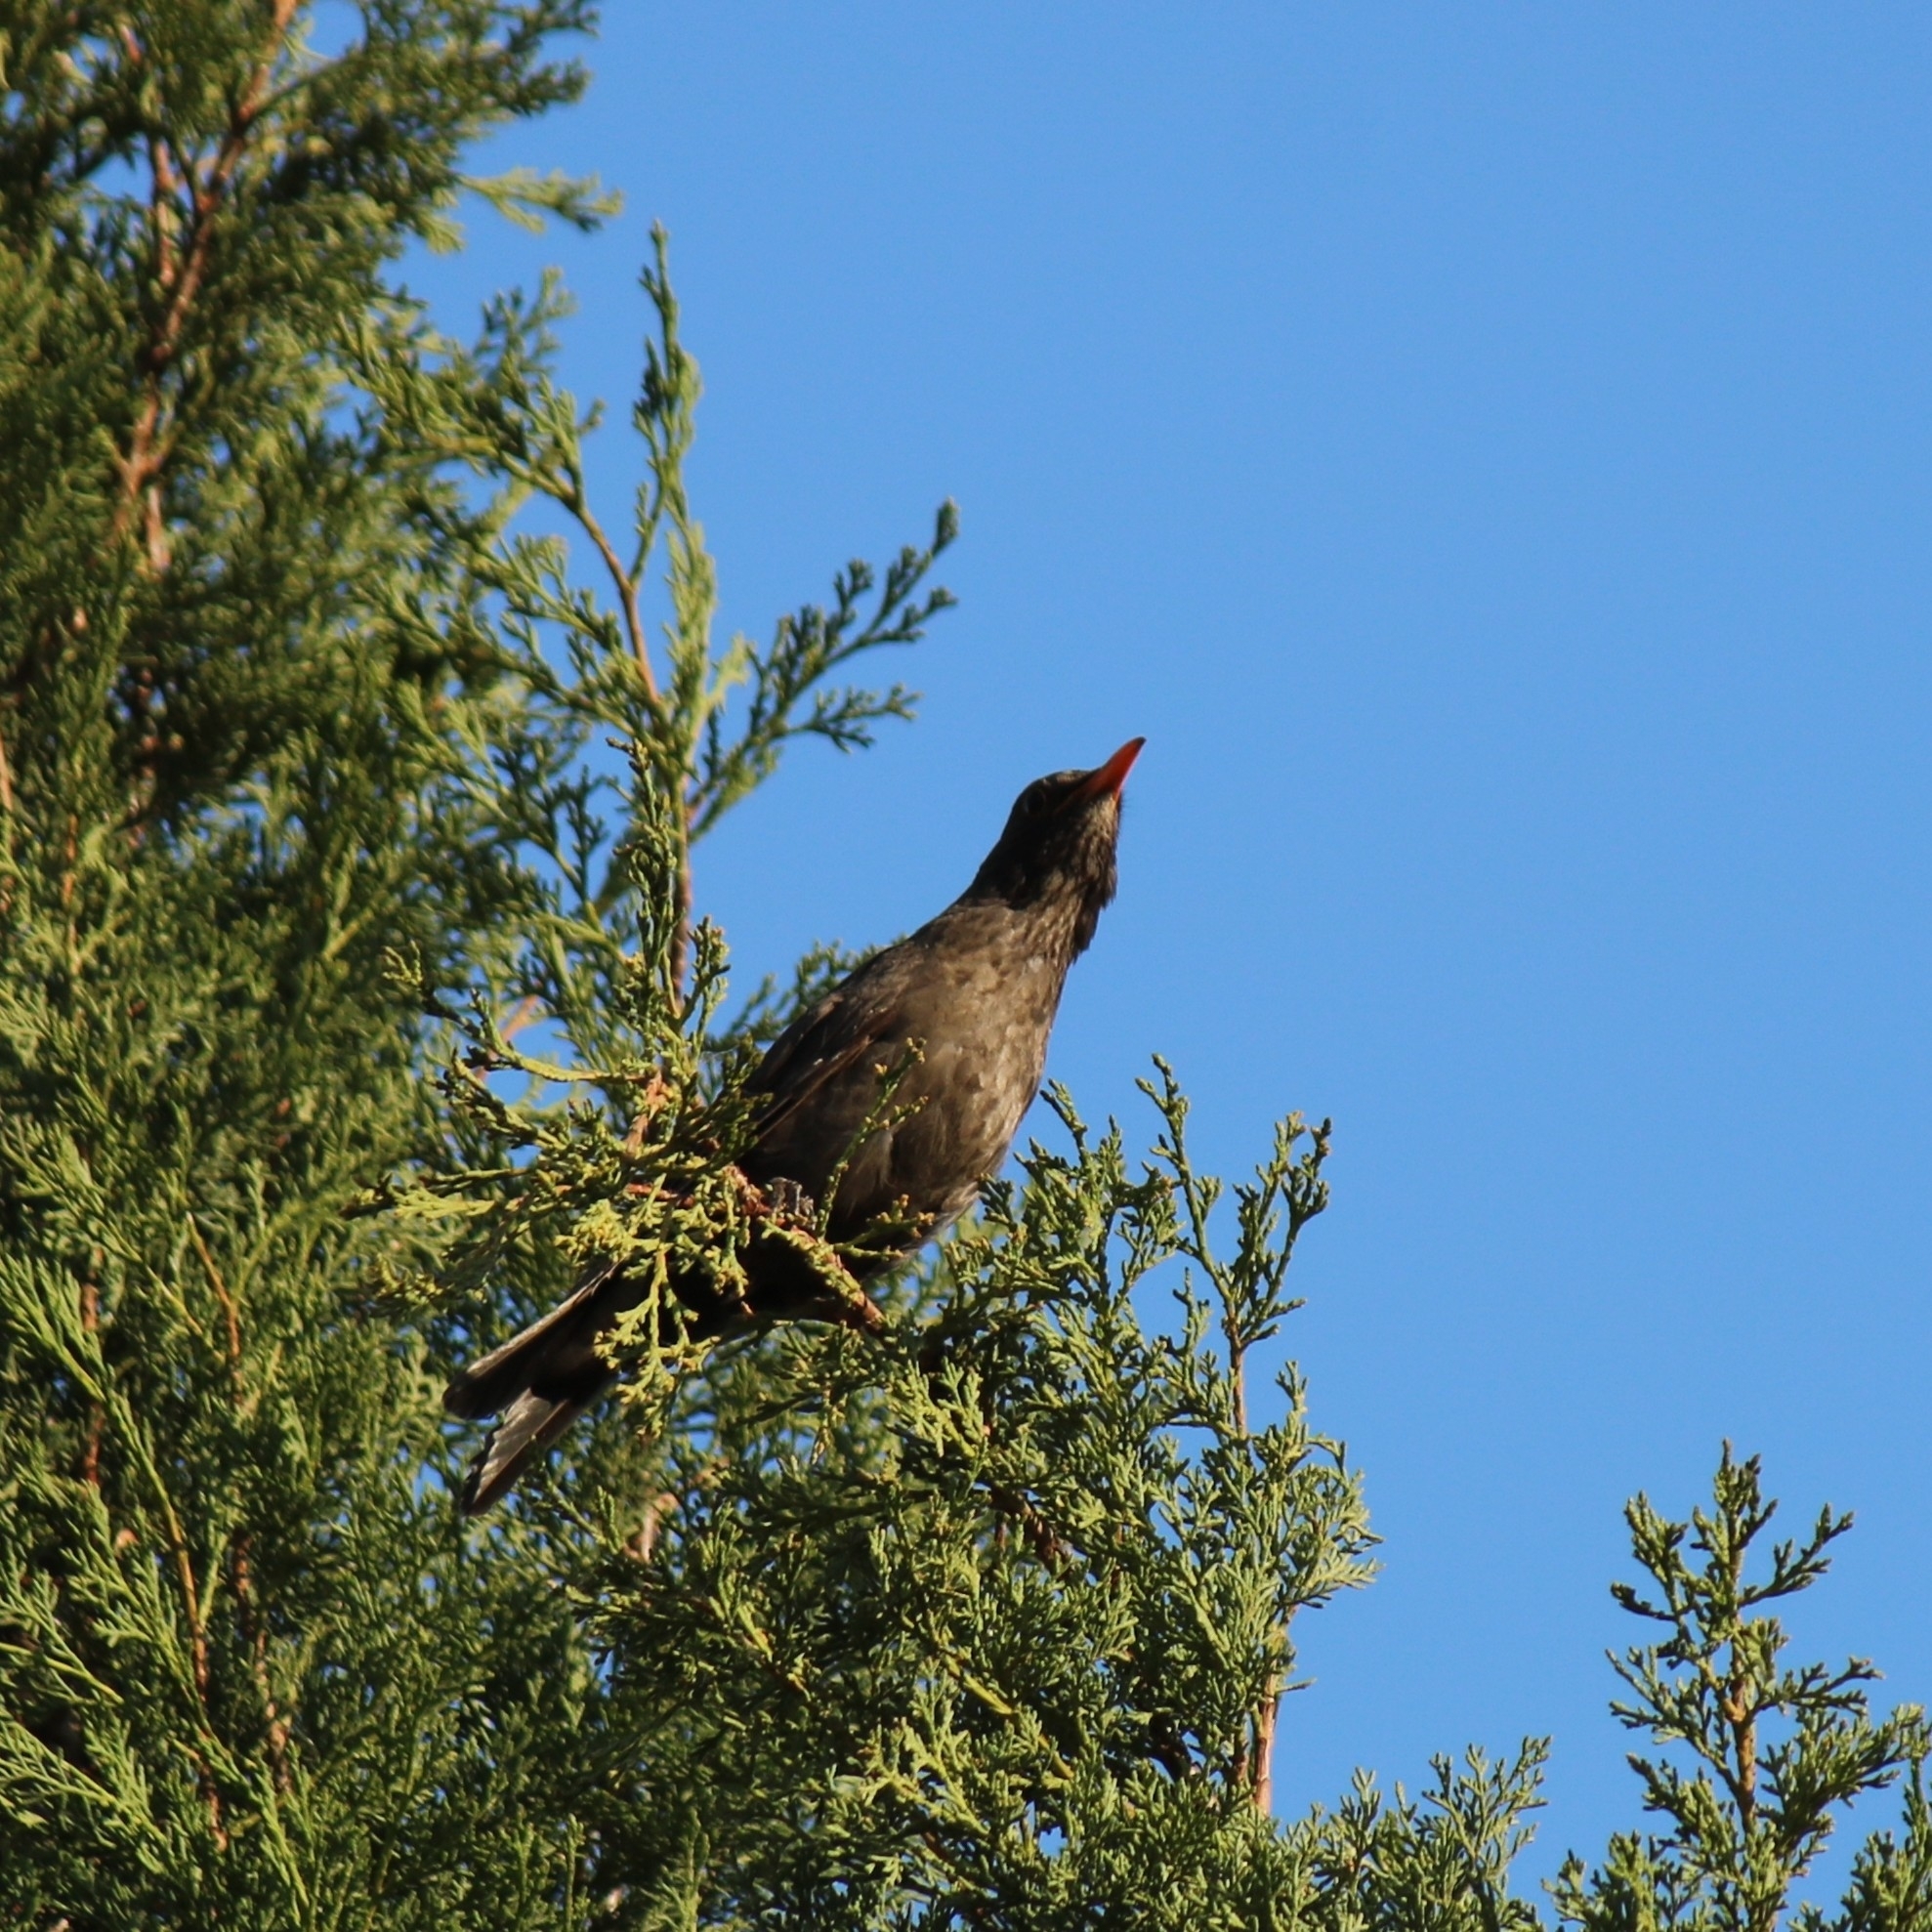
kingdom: Animalia
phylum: Chordata
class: Aves
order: Passeriformes
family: Turdidae
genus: Turdus
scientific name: Turdus merula
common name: Common blackbird
